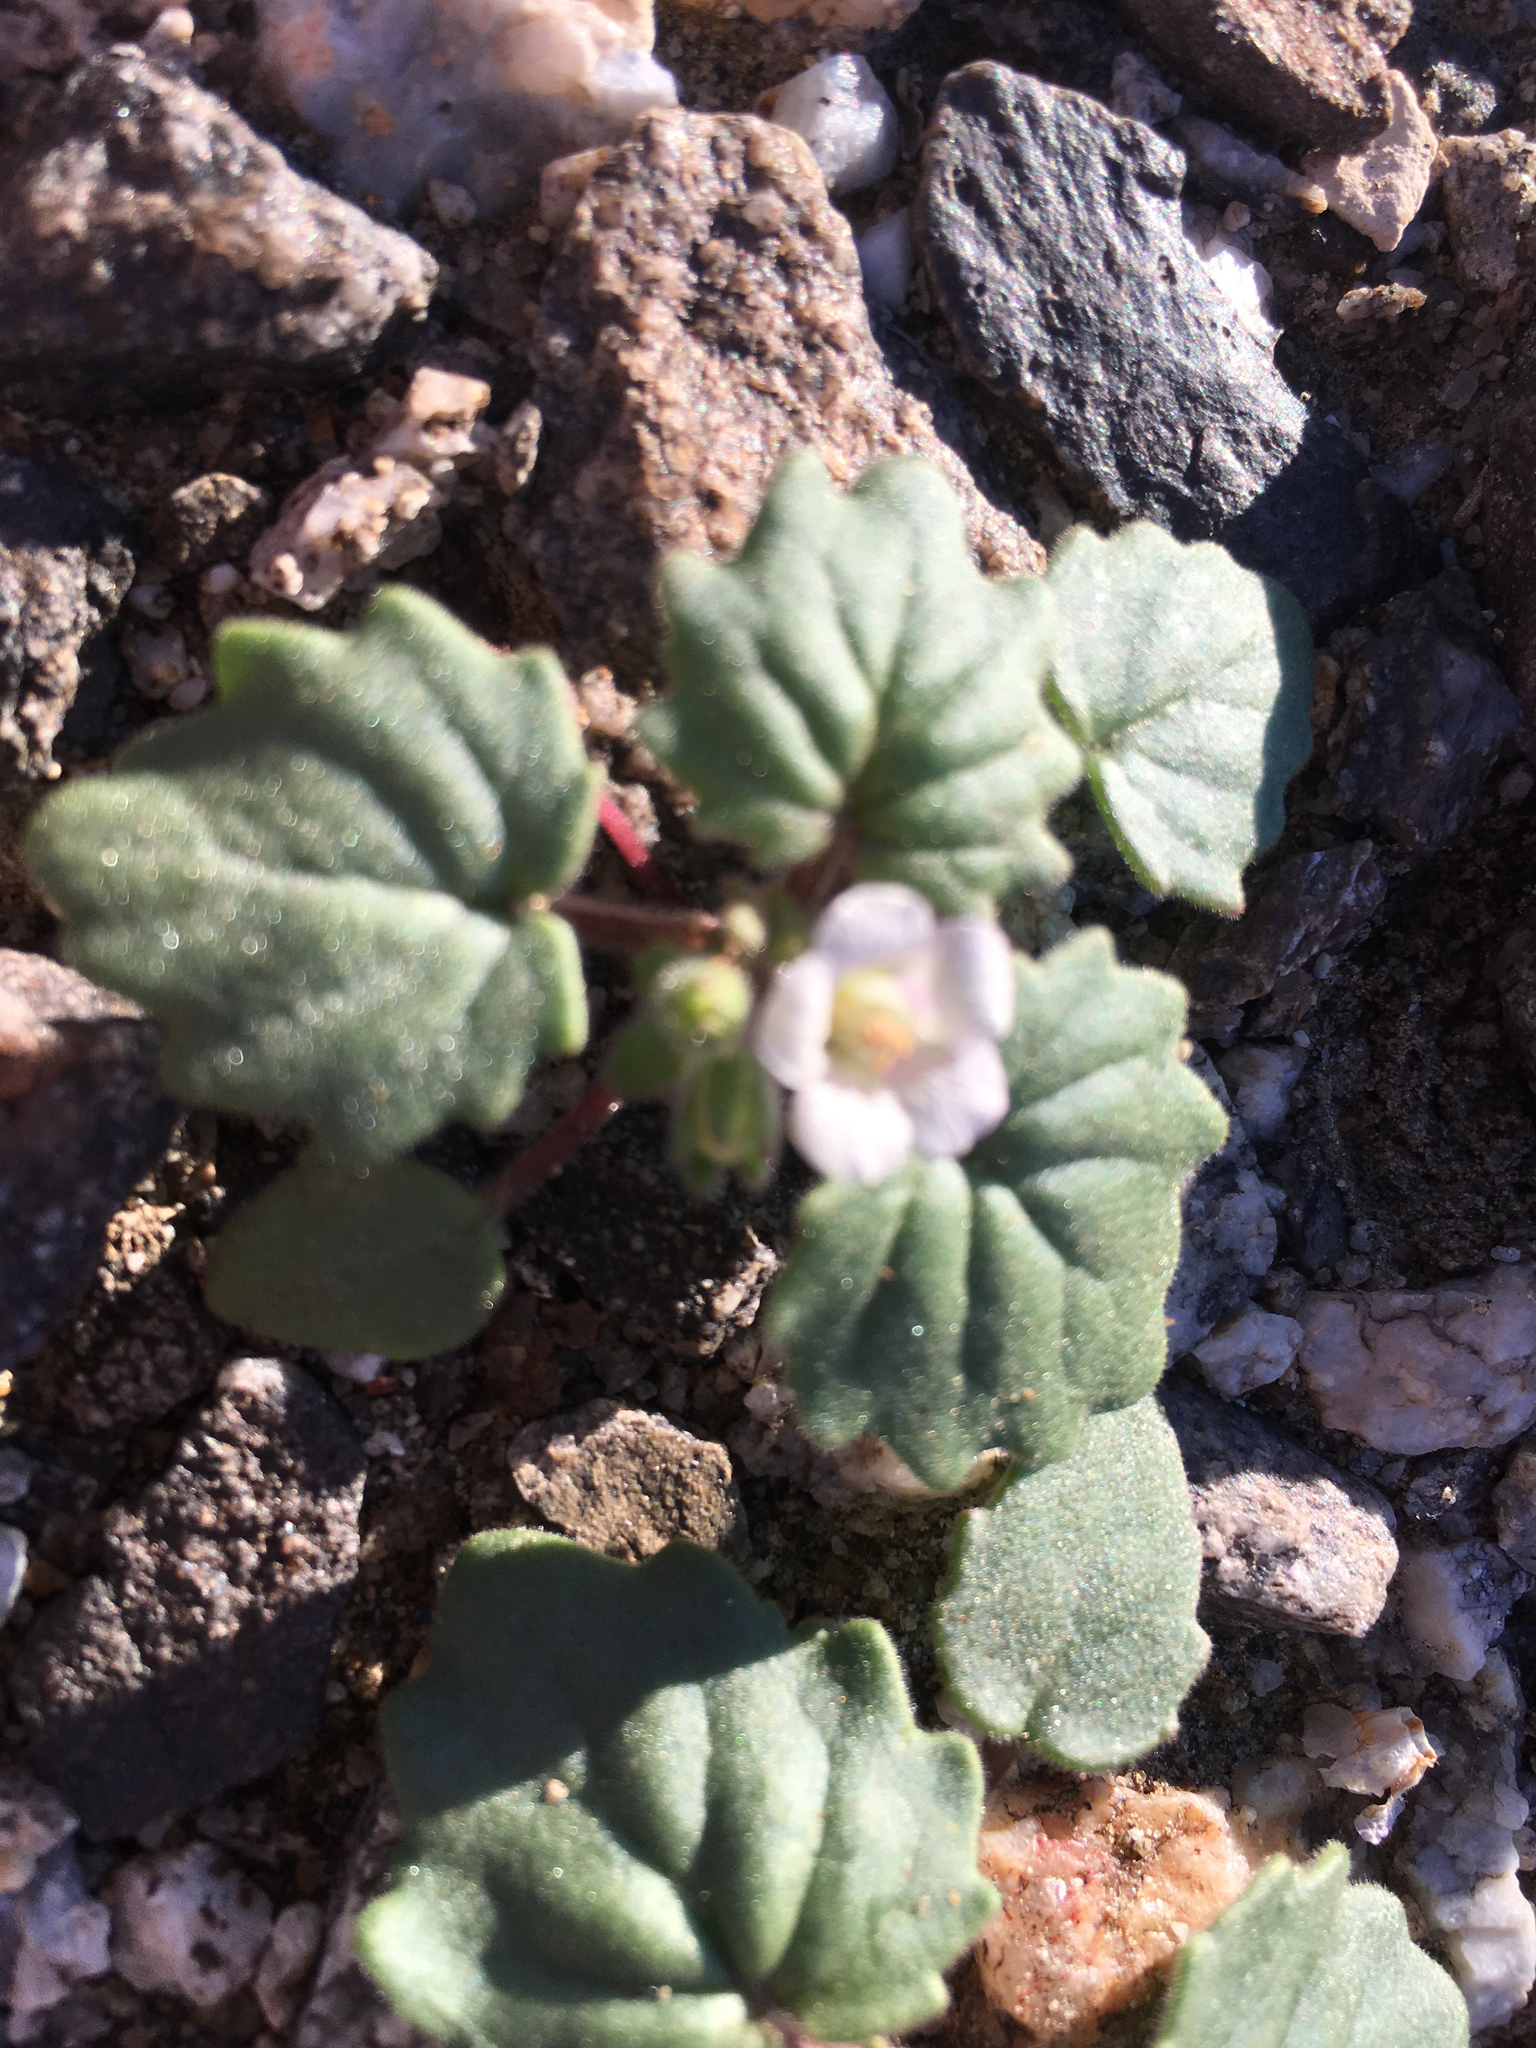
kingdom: Plantae
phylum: Tracheophyta
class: Magnoliopsida
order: Boraginales
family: Hydrophyllaceae
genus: Phacelia
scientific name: Phacelia neglecta
